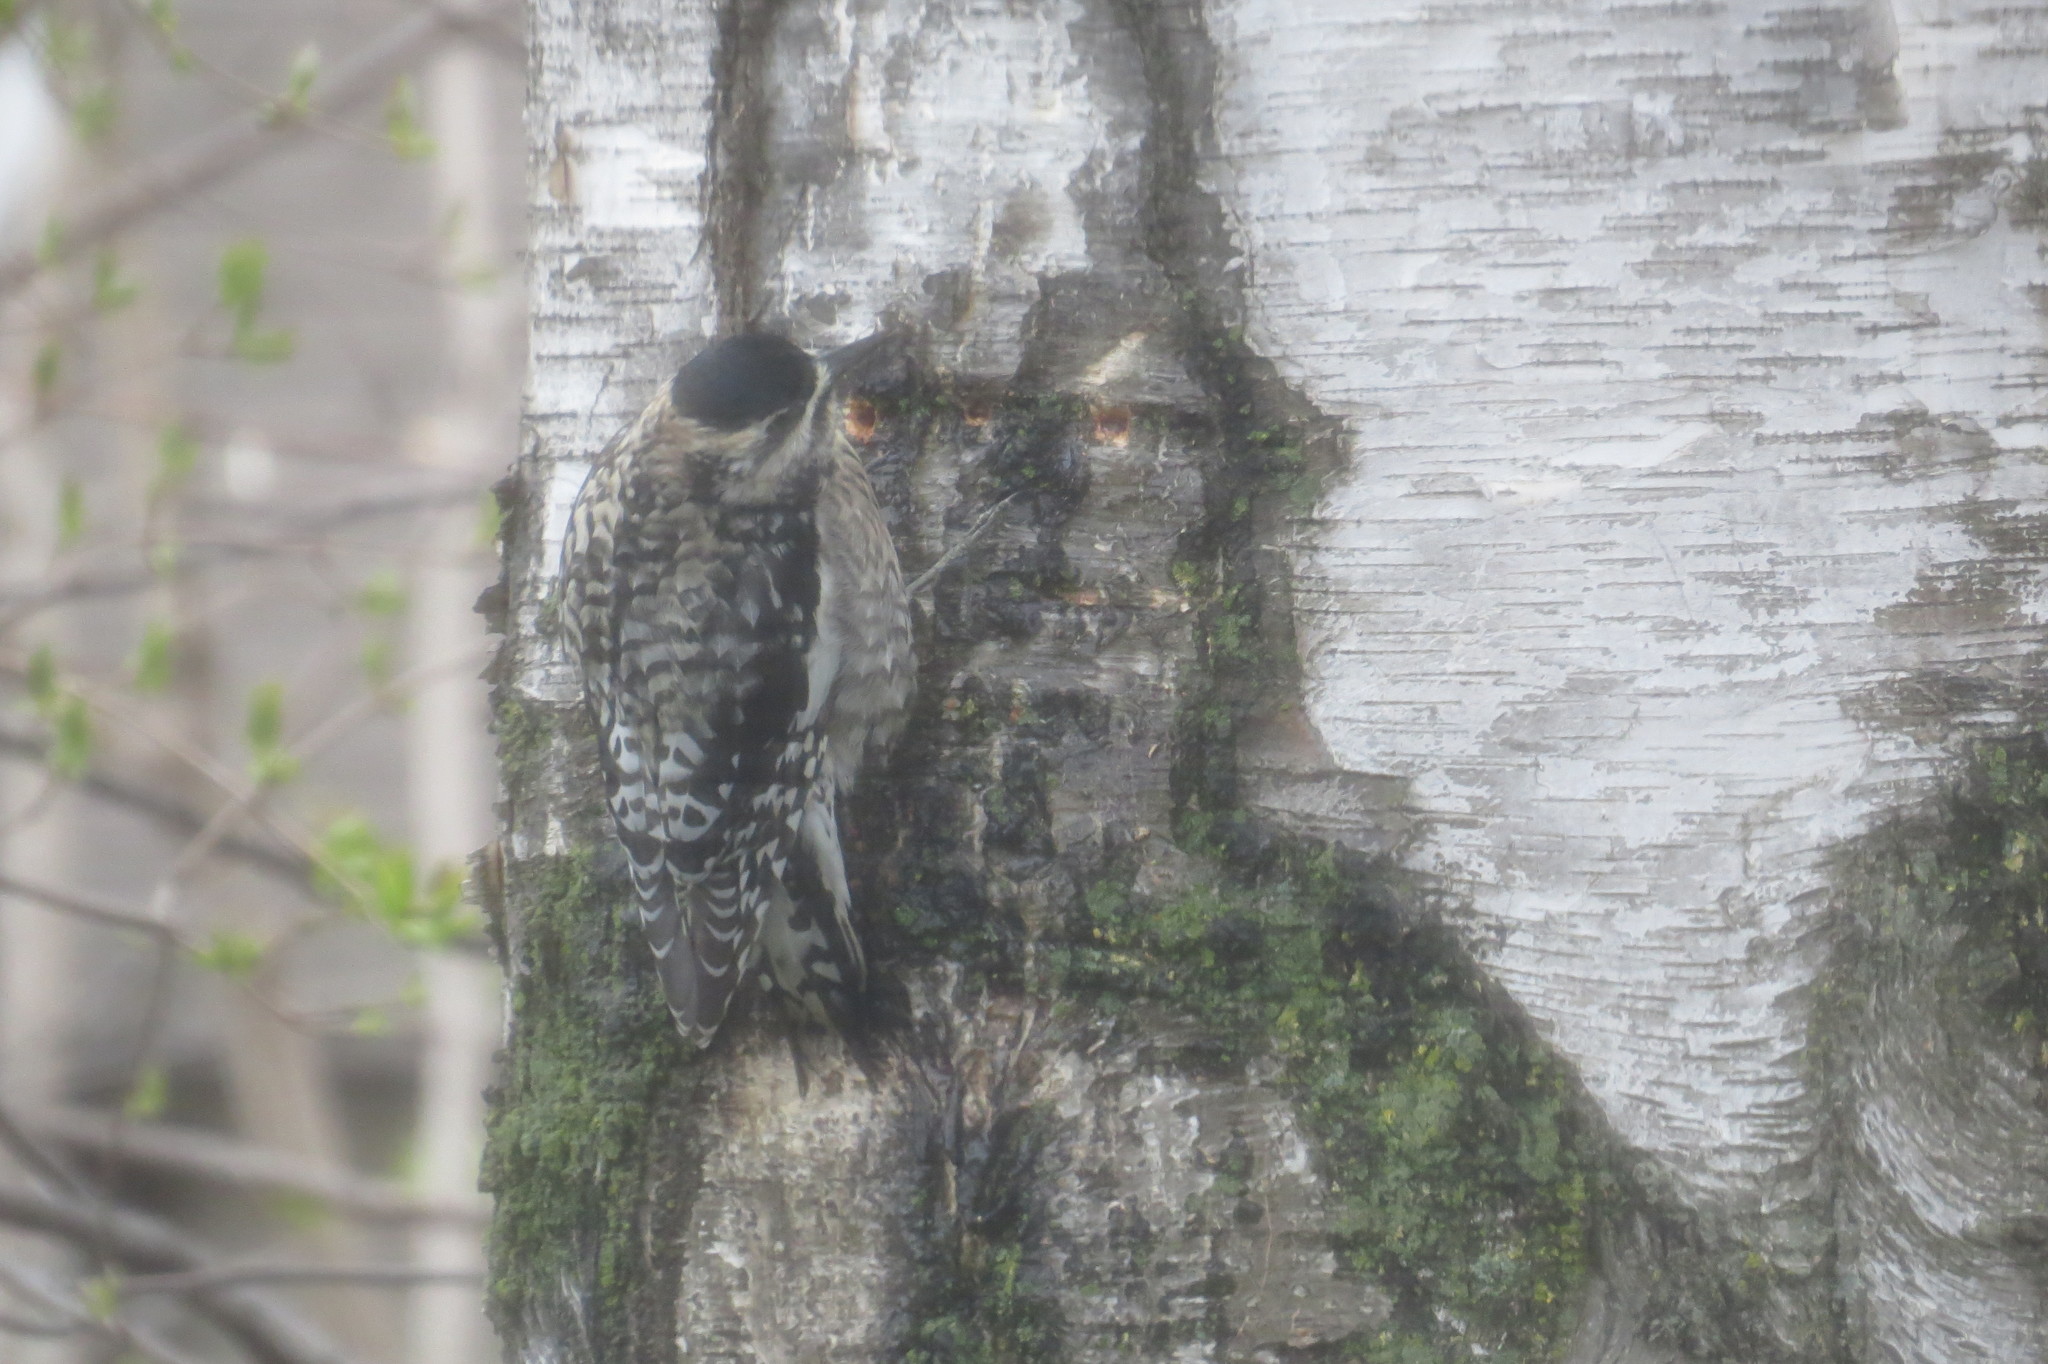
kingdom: Animalia
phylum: Chordata
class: Aves
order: Piciformes
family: Picidae
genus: Sphyrapicus
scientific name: Sphyrapicus varius
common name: Yellow-bellied sapsucker
